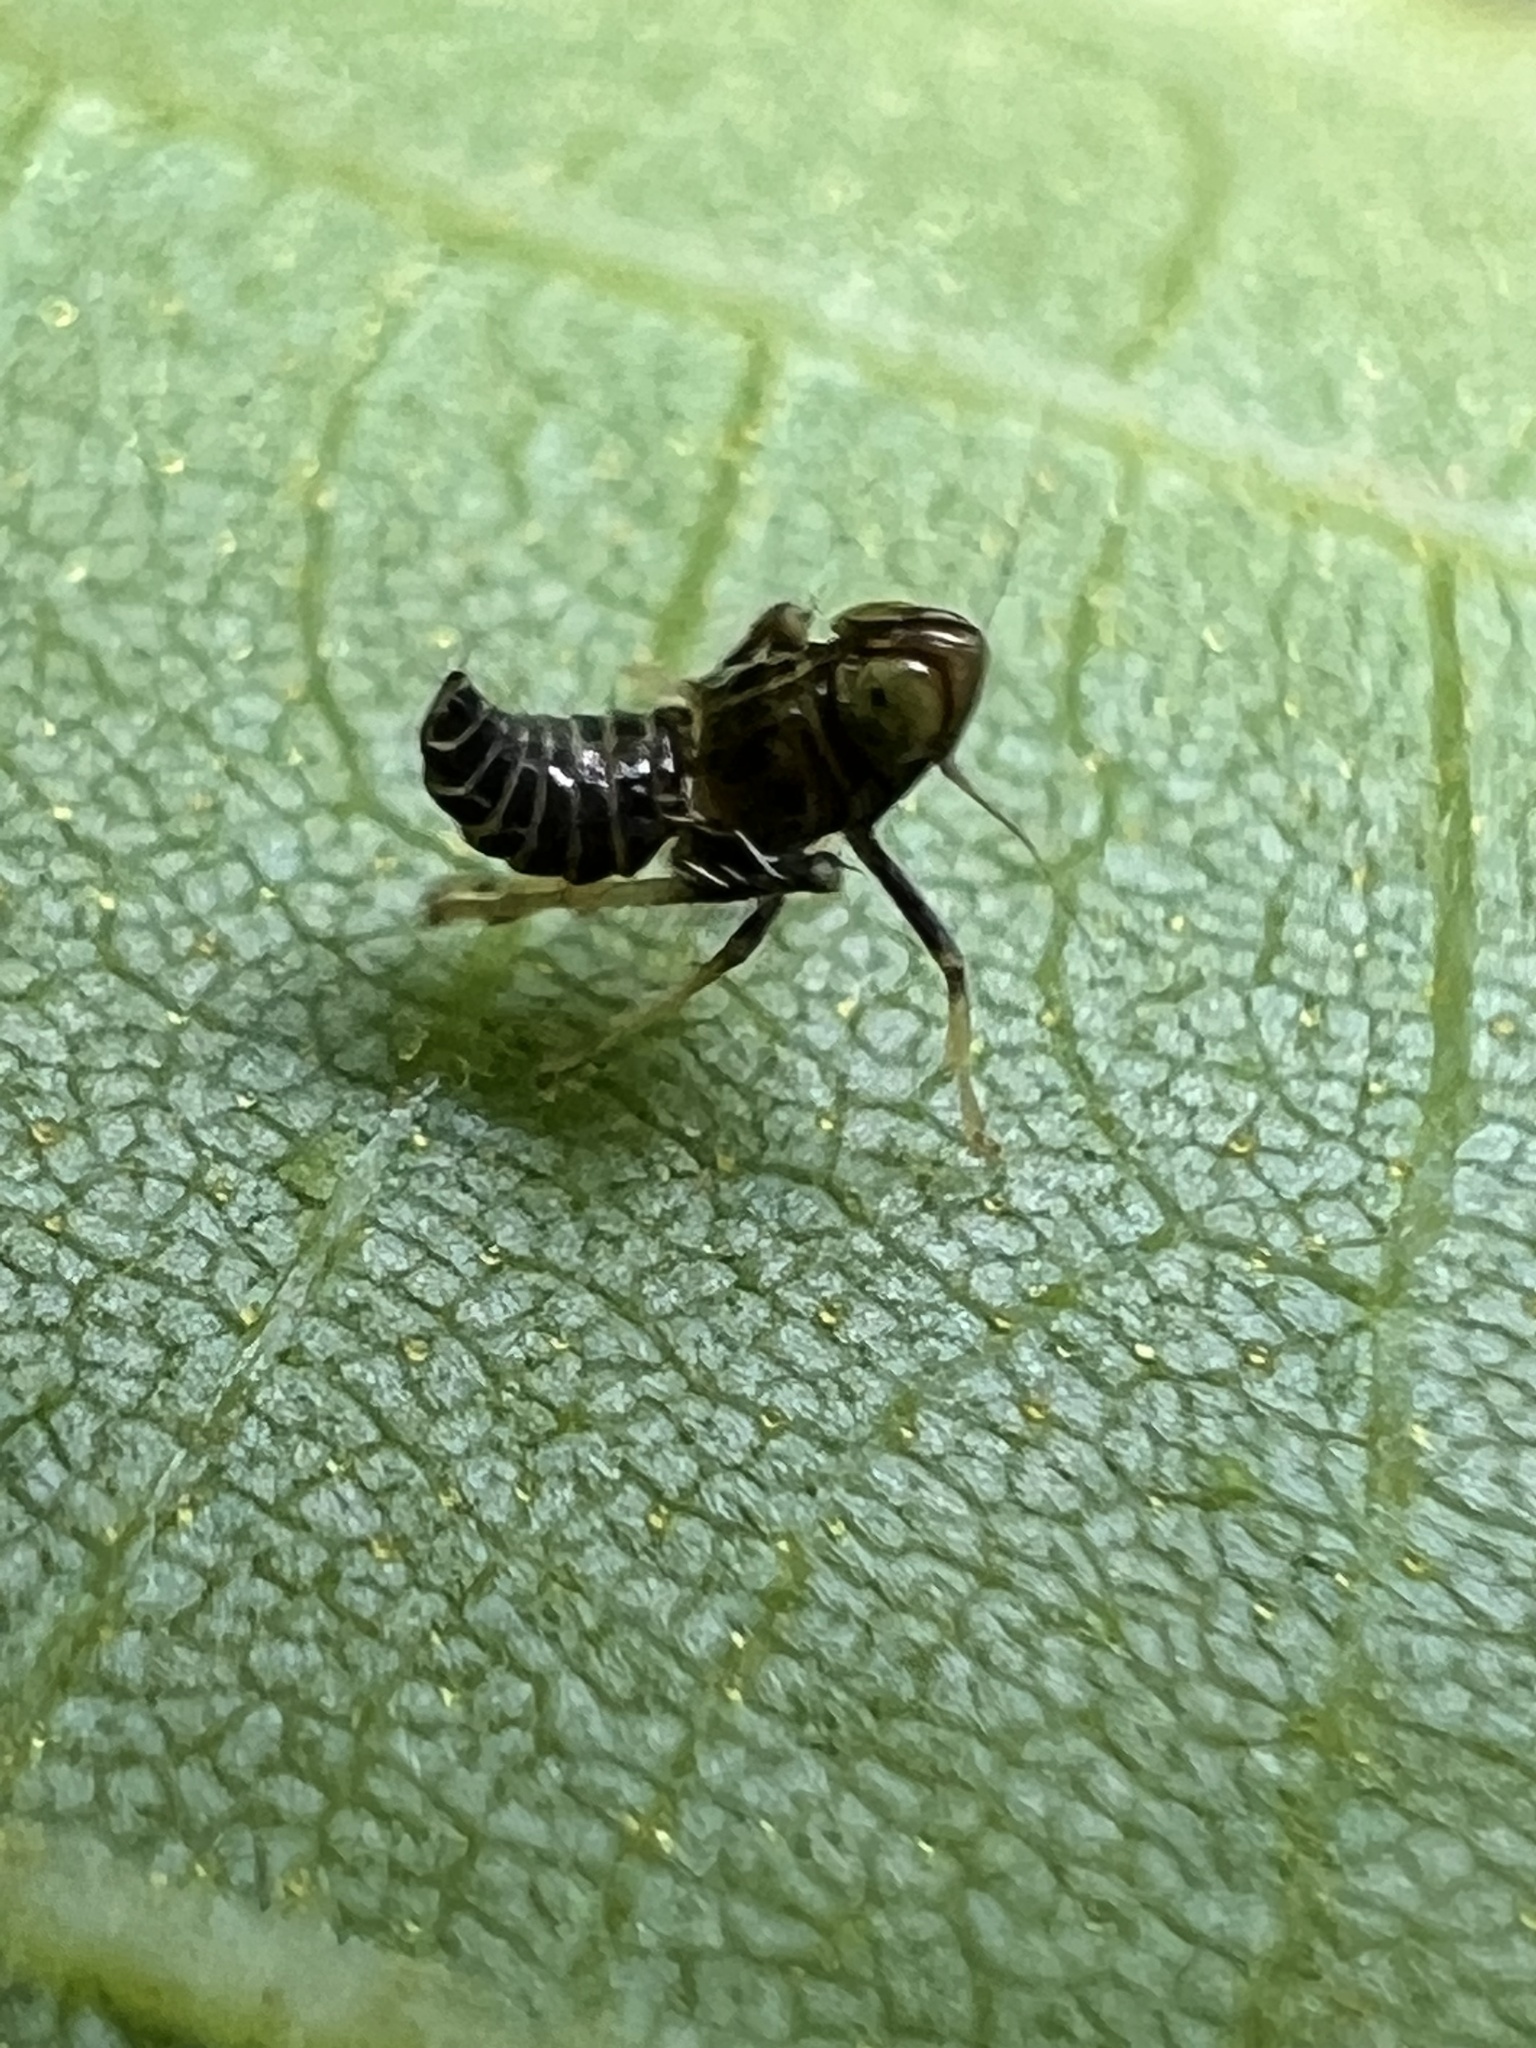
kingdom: Animalia
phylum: Arthropoda
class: Insecta
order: Hemiptera
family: Cicadellidae
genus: Jikradia
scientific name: Jikradia olitoria
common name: Coppery leafhopper
